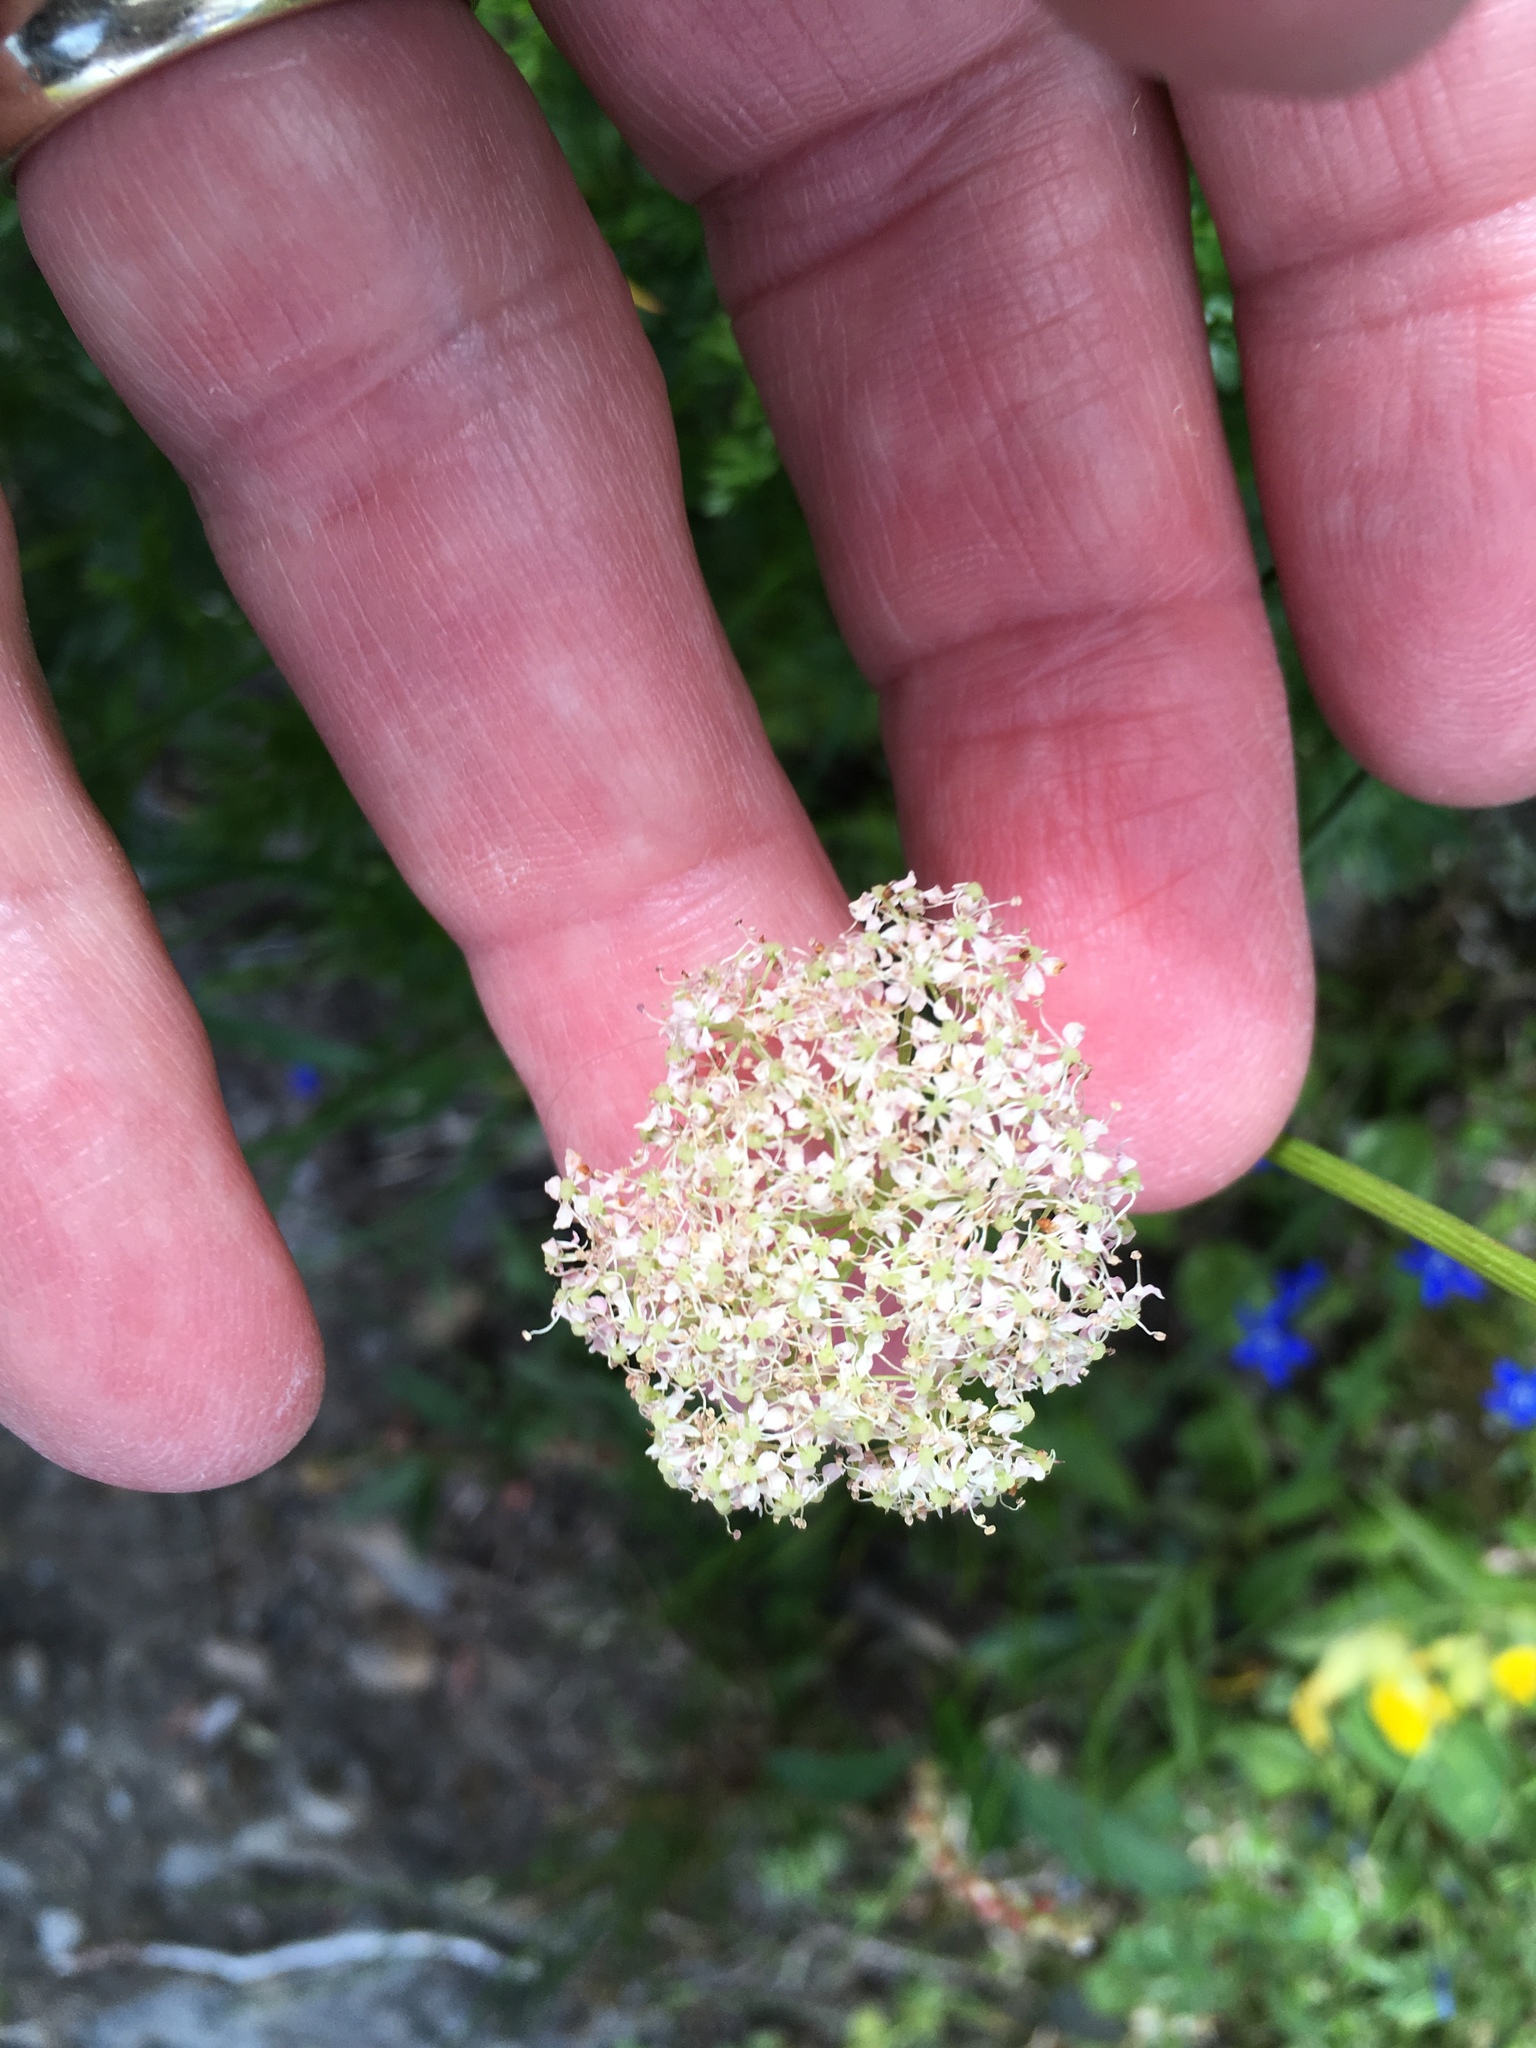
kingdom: Plantae
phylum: Tracheophyta
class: Magnoliopsida
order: Apiales
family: Apiaceae
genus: Mutellina
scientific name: Mutellina adonidifolia
